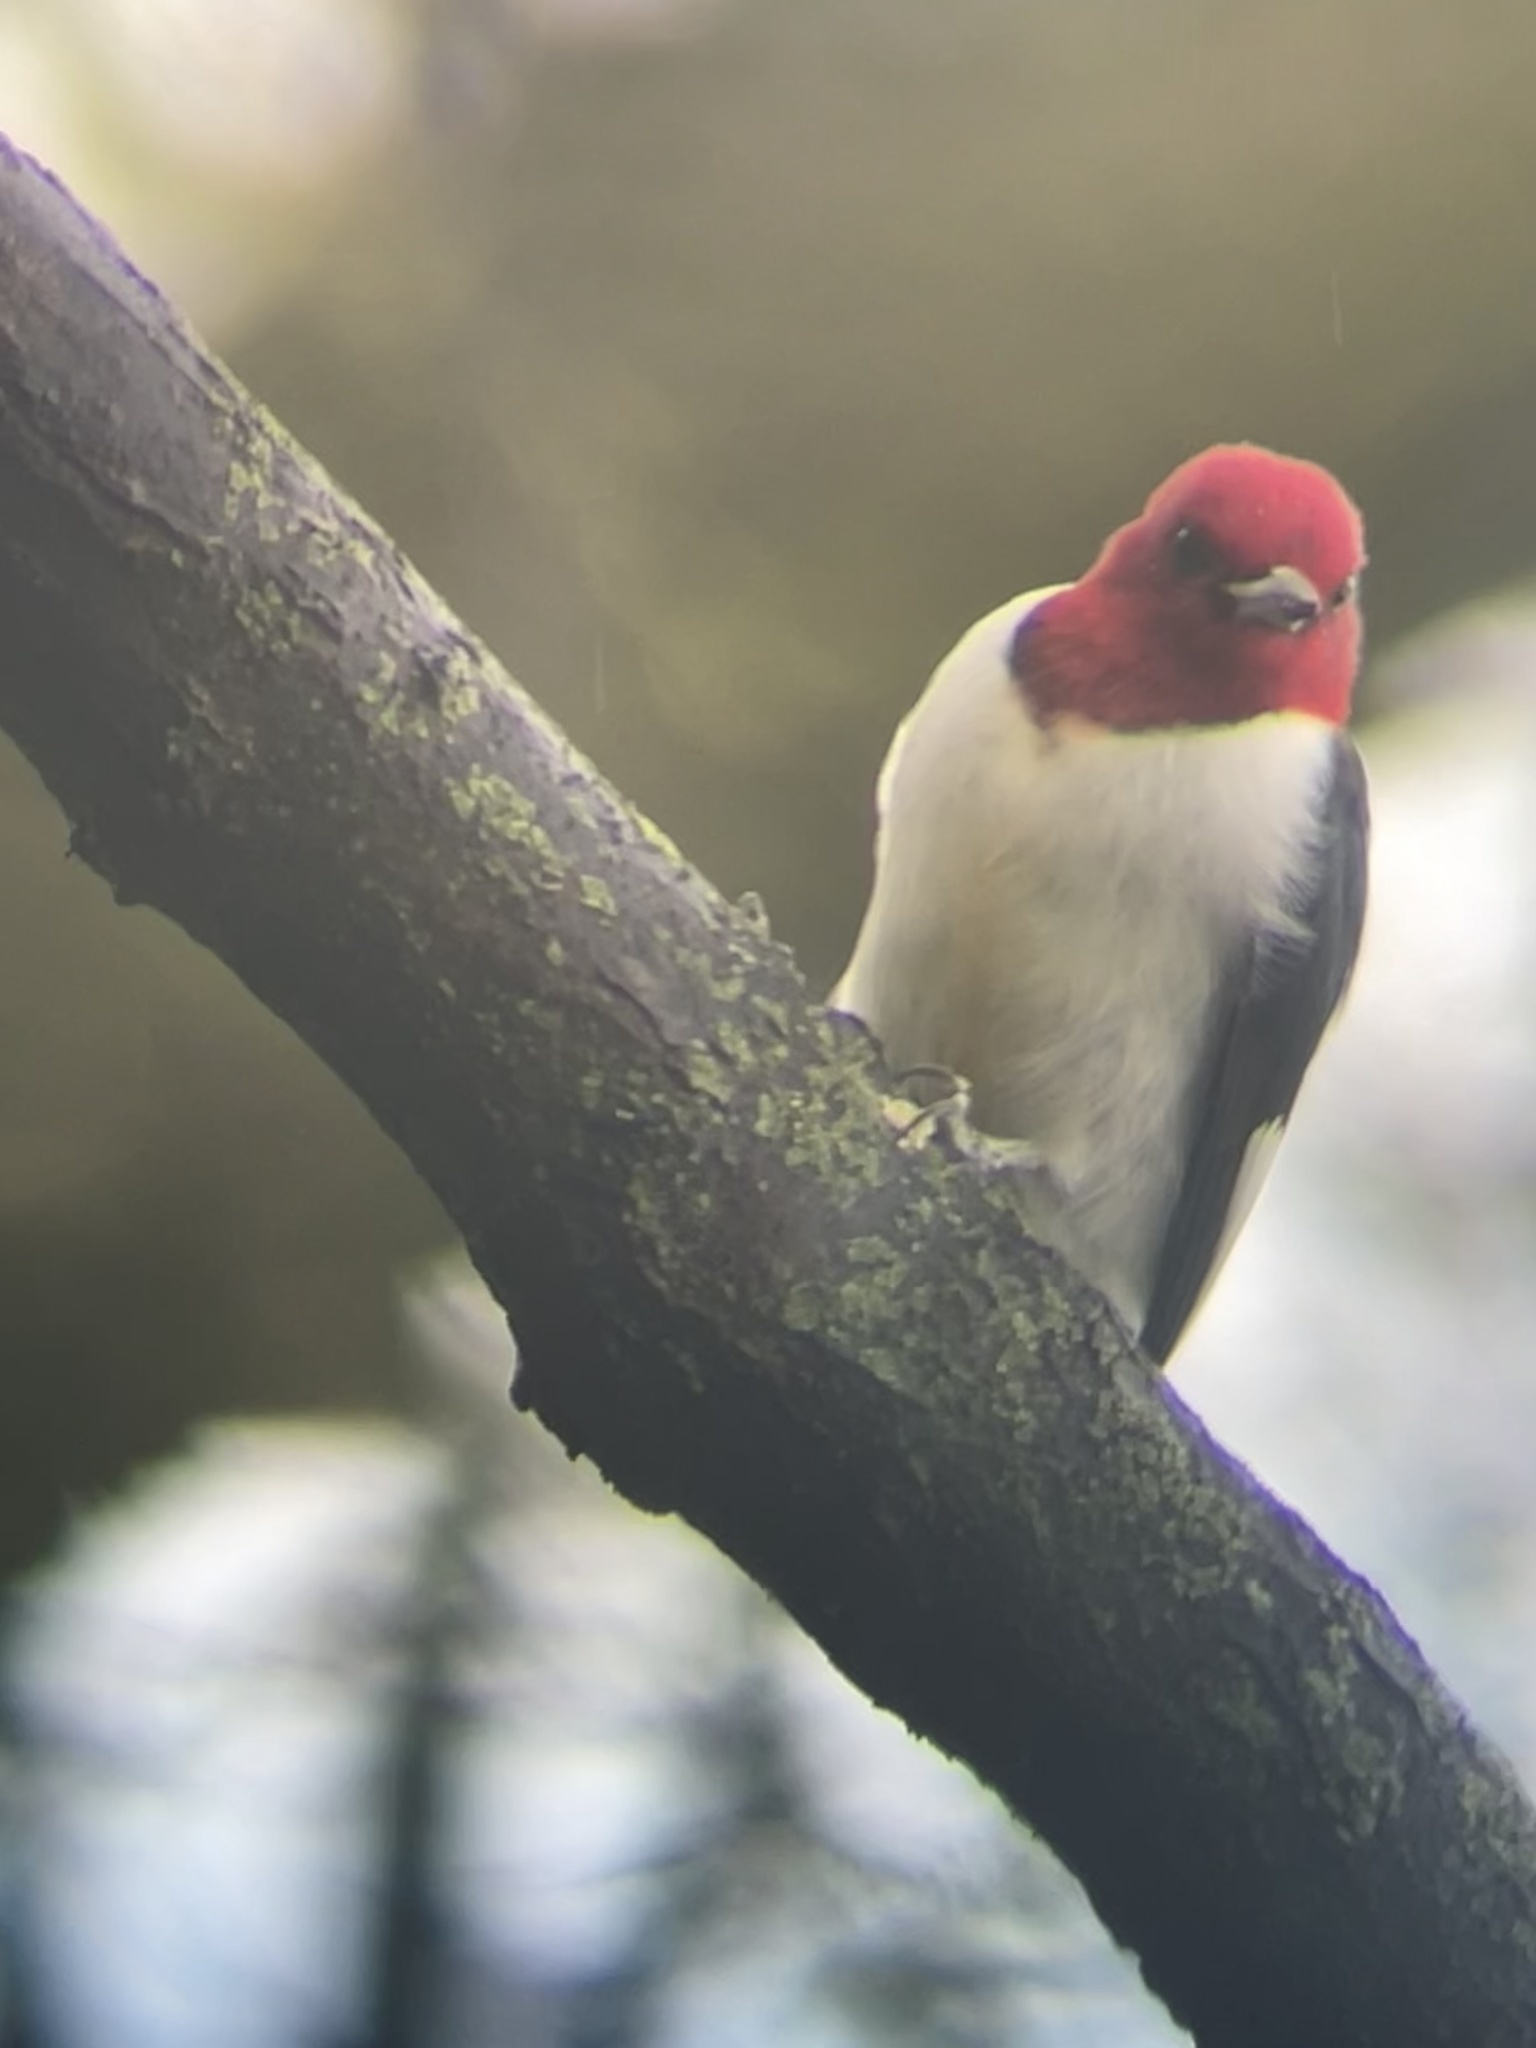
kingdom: Animalia
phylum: Chordata
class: Aves
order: Piciformes
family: Picidae
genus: Melanerpes
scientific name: Melanerpes erythrocephalus
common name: Red-headed woodpecker
